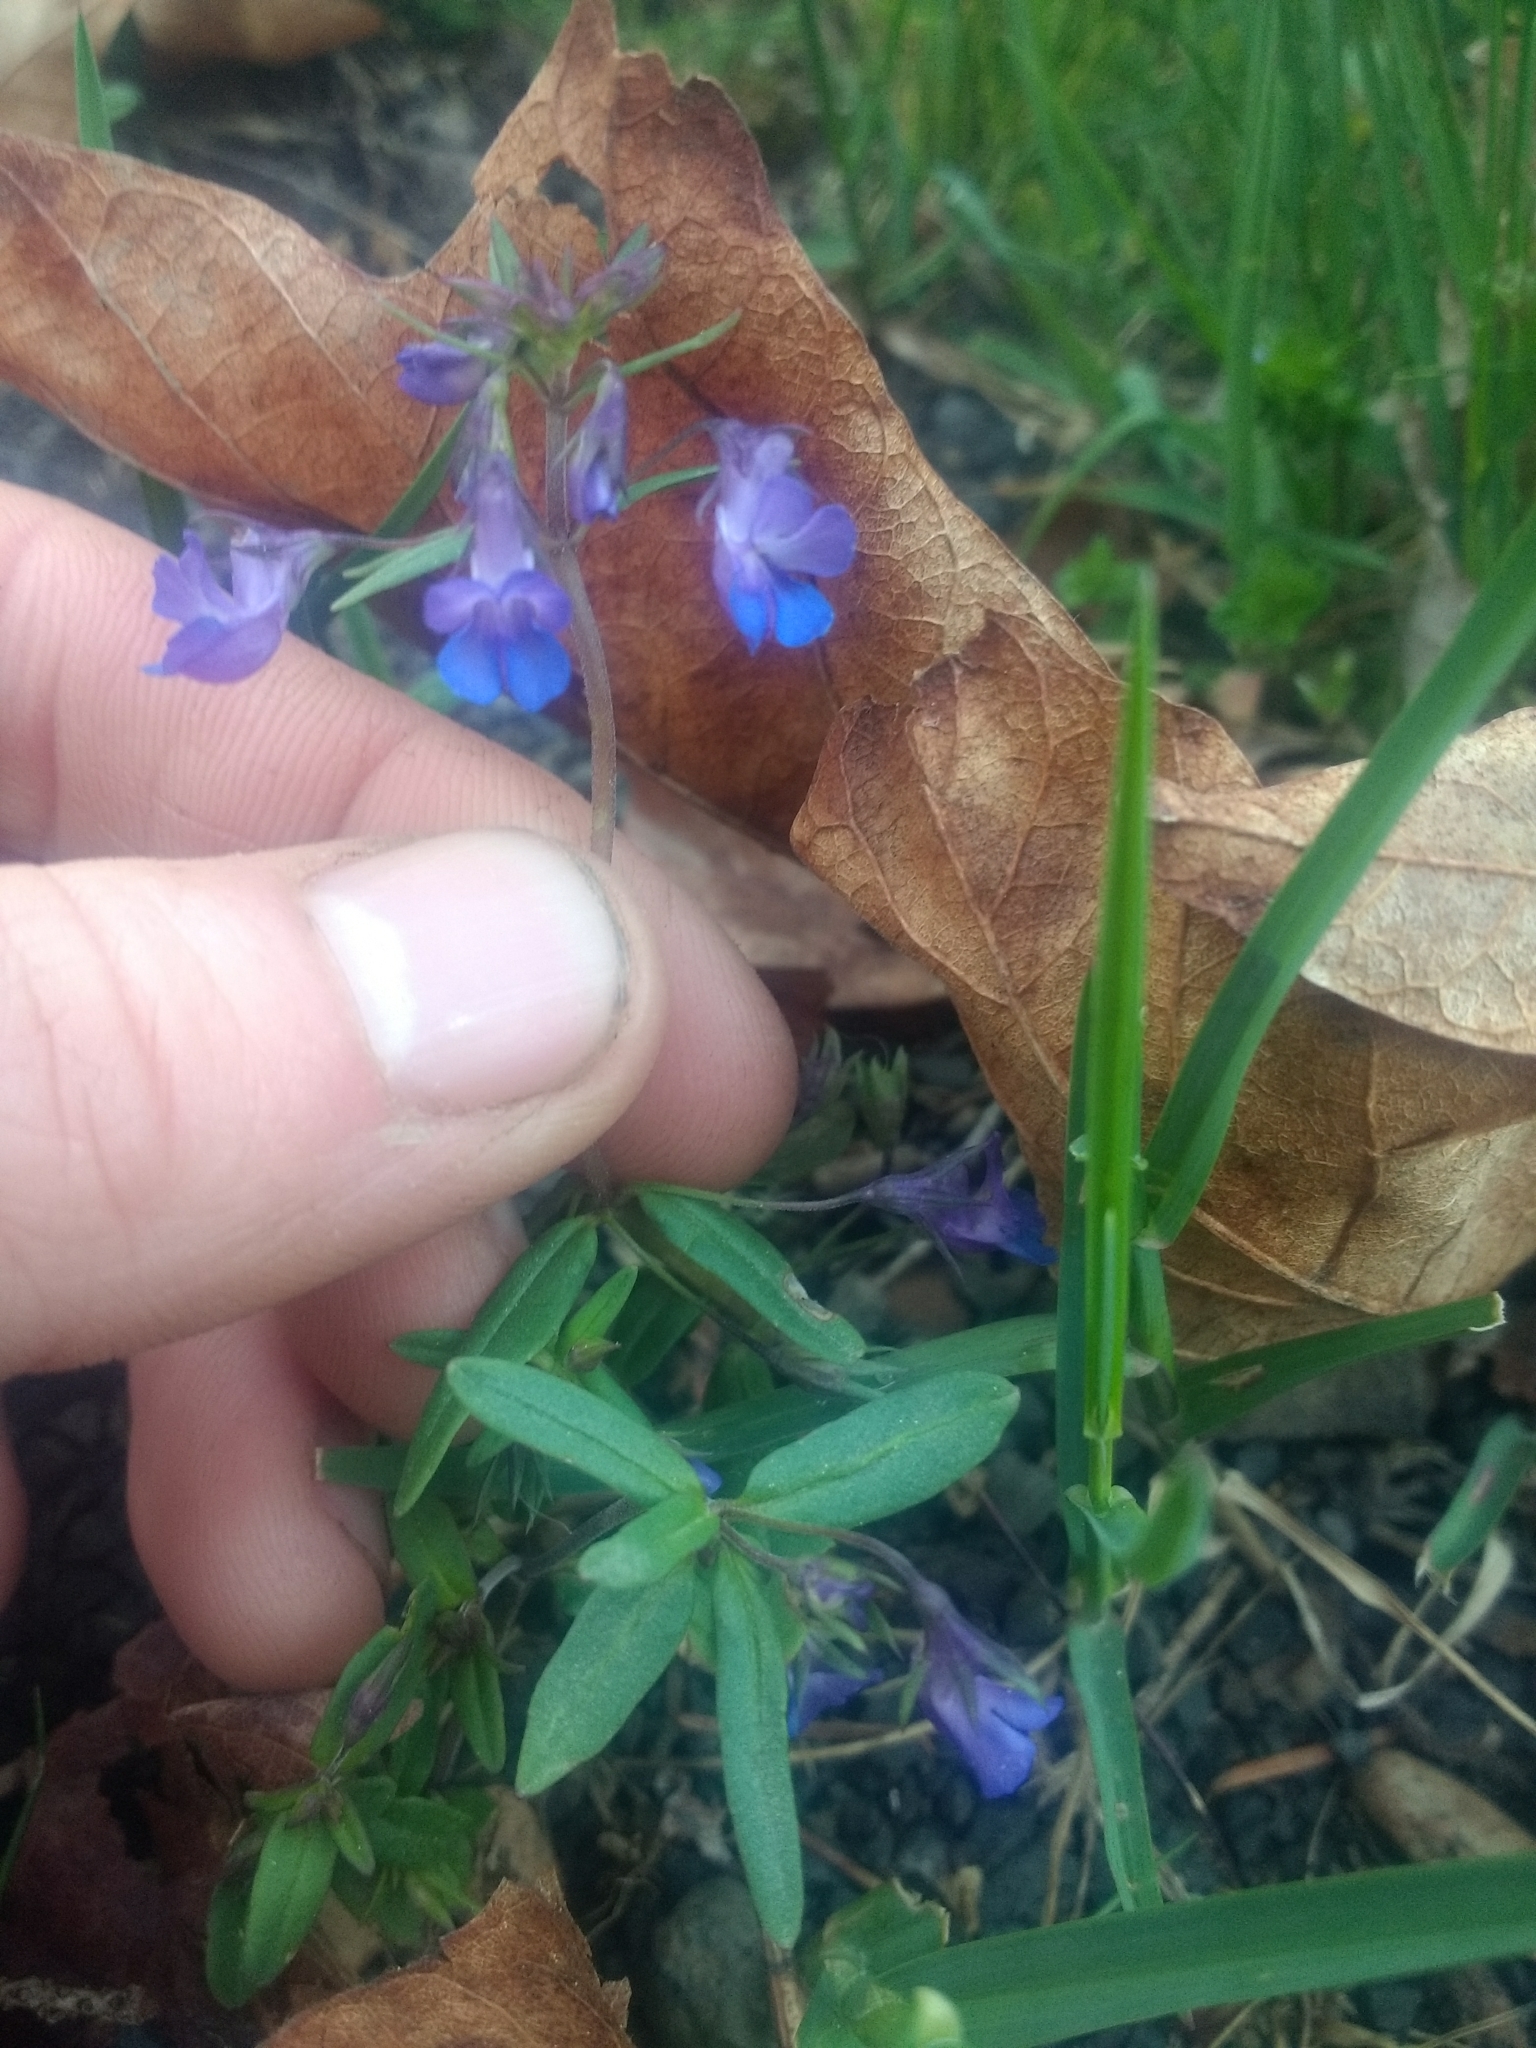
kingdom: Plantae
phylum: Tracheophyta
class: Magnoliopsida
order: Lamiales
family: Plantaginaceae
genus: Collinsia
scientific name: Collinsia grandiflora
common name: Large-flower blue-eyed-mary
